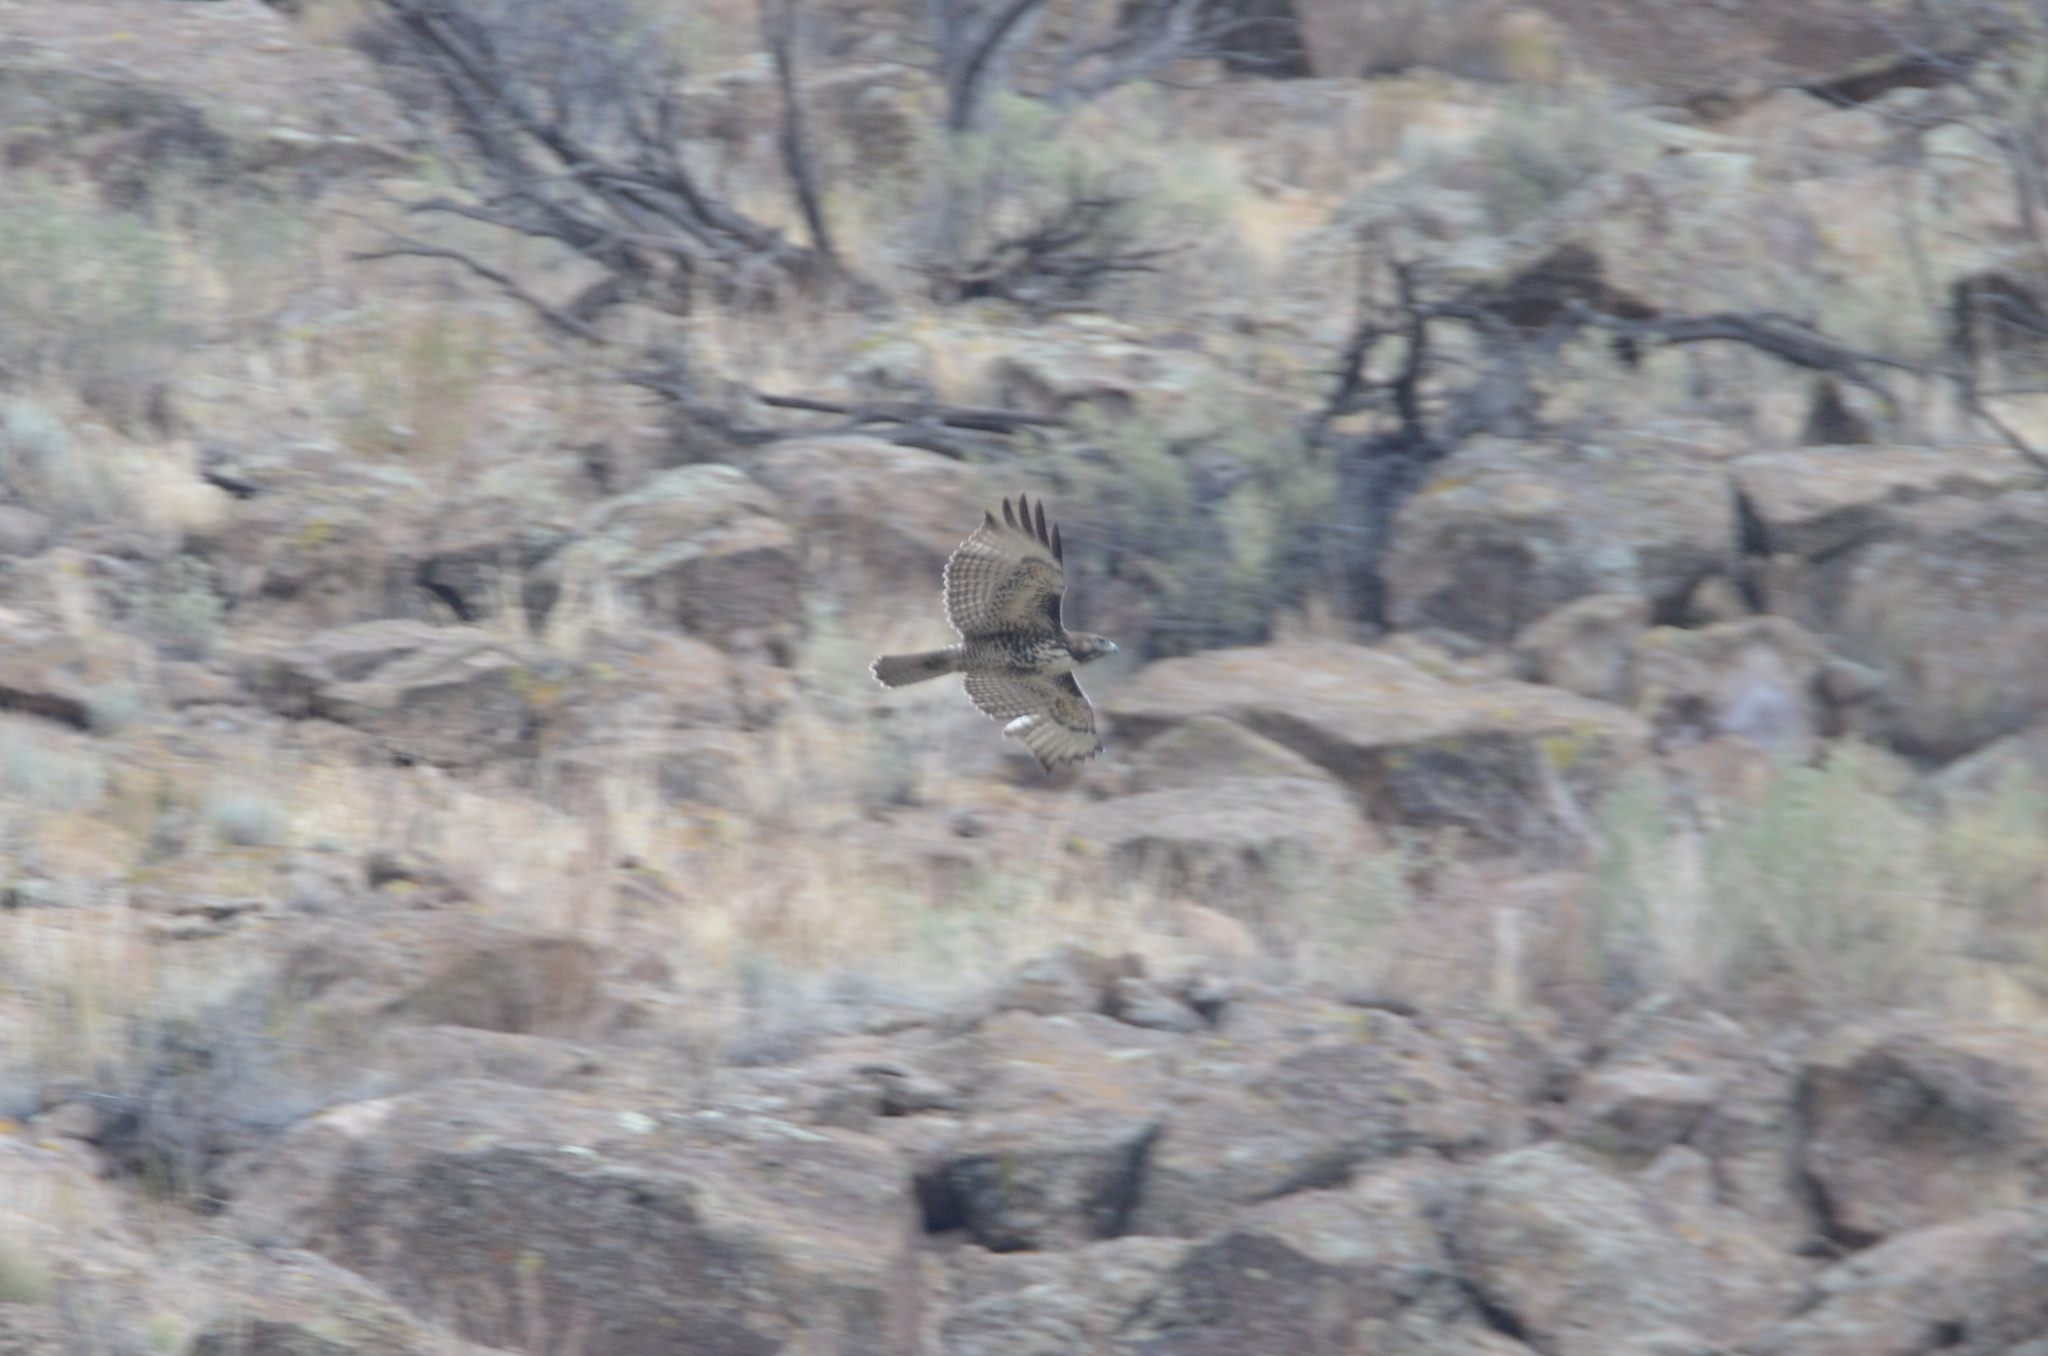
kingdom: Animalia
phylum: Chordata
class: Aves
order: Accipitriformes
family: Accipitridae
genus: Buteo
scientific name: Buteo jamaicensis
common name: Red-tailed hawk
